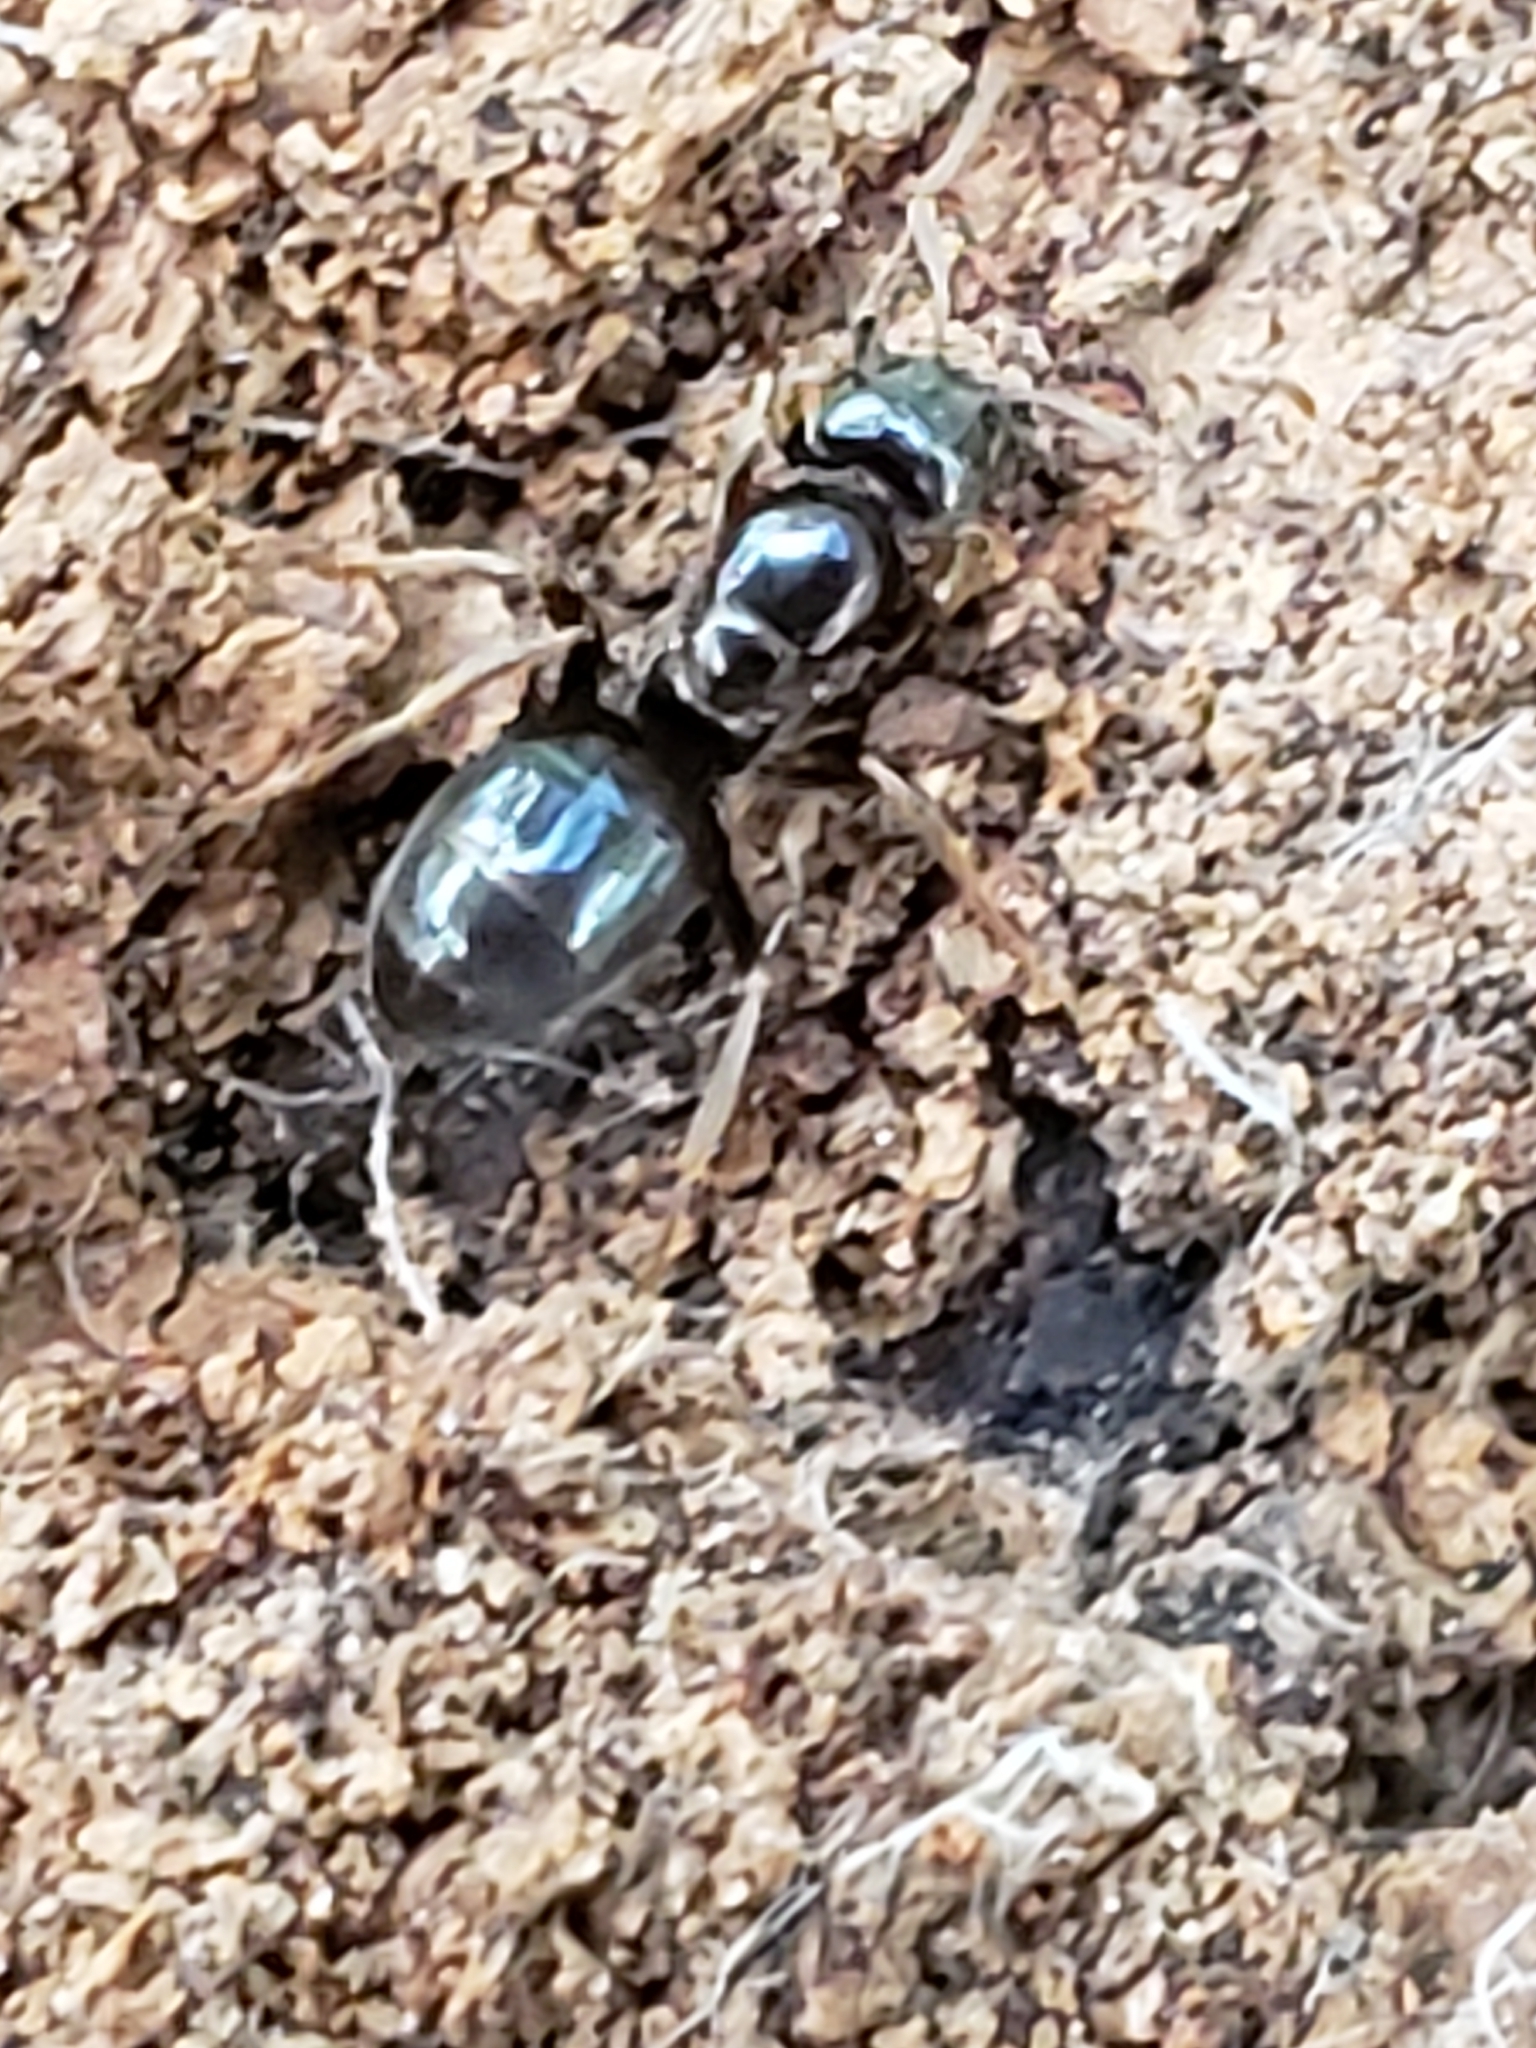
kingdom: Animalia
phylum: Arthropoda
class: Insecta
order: Hymenoptera
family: Formicidae
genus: Lasius
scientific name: Lasius aphidicola
